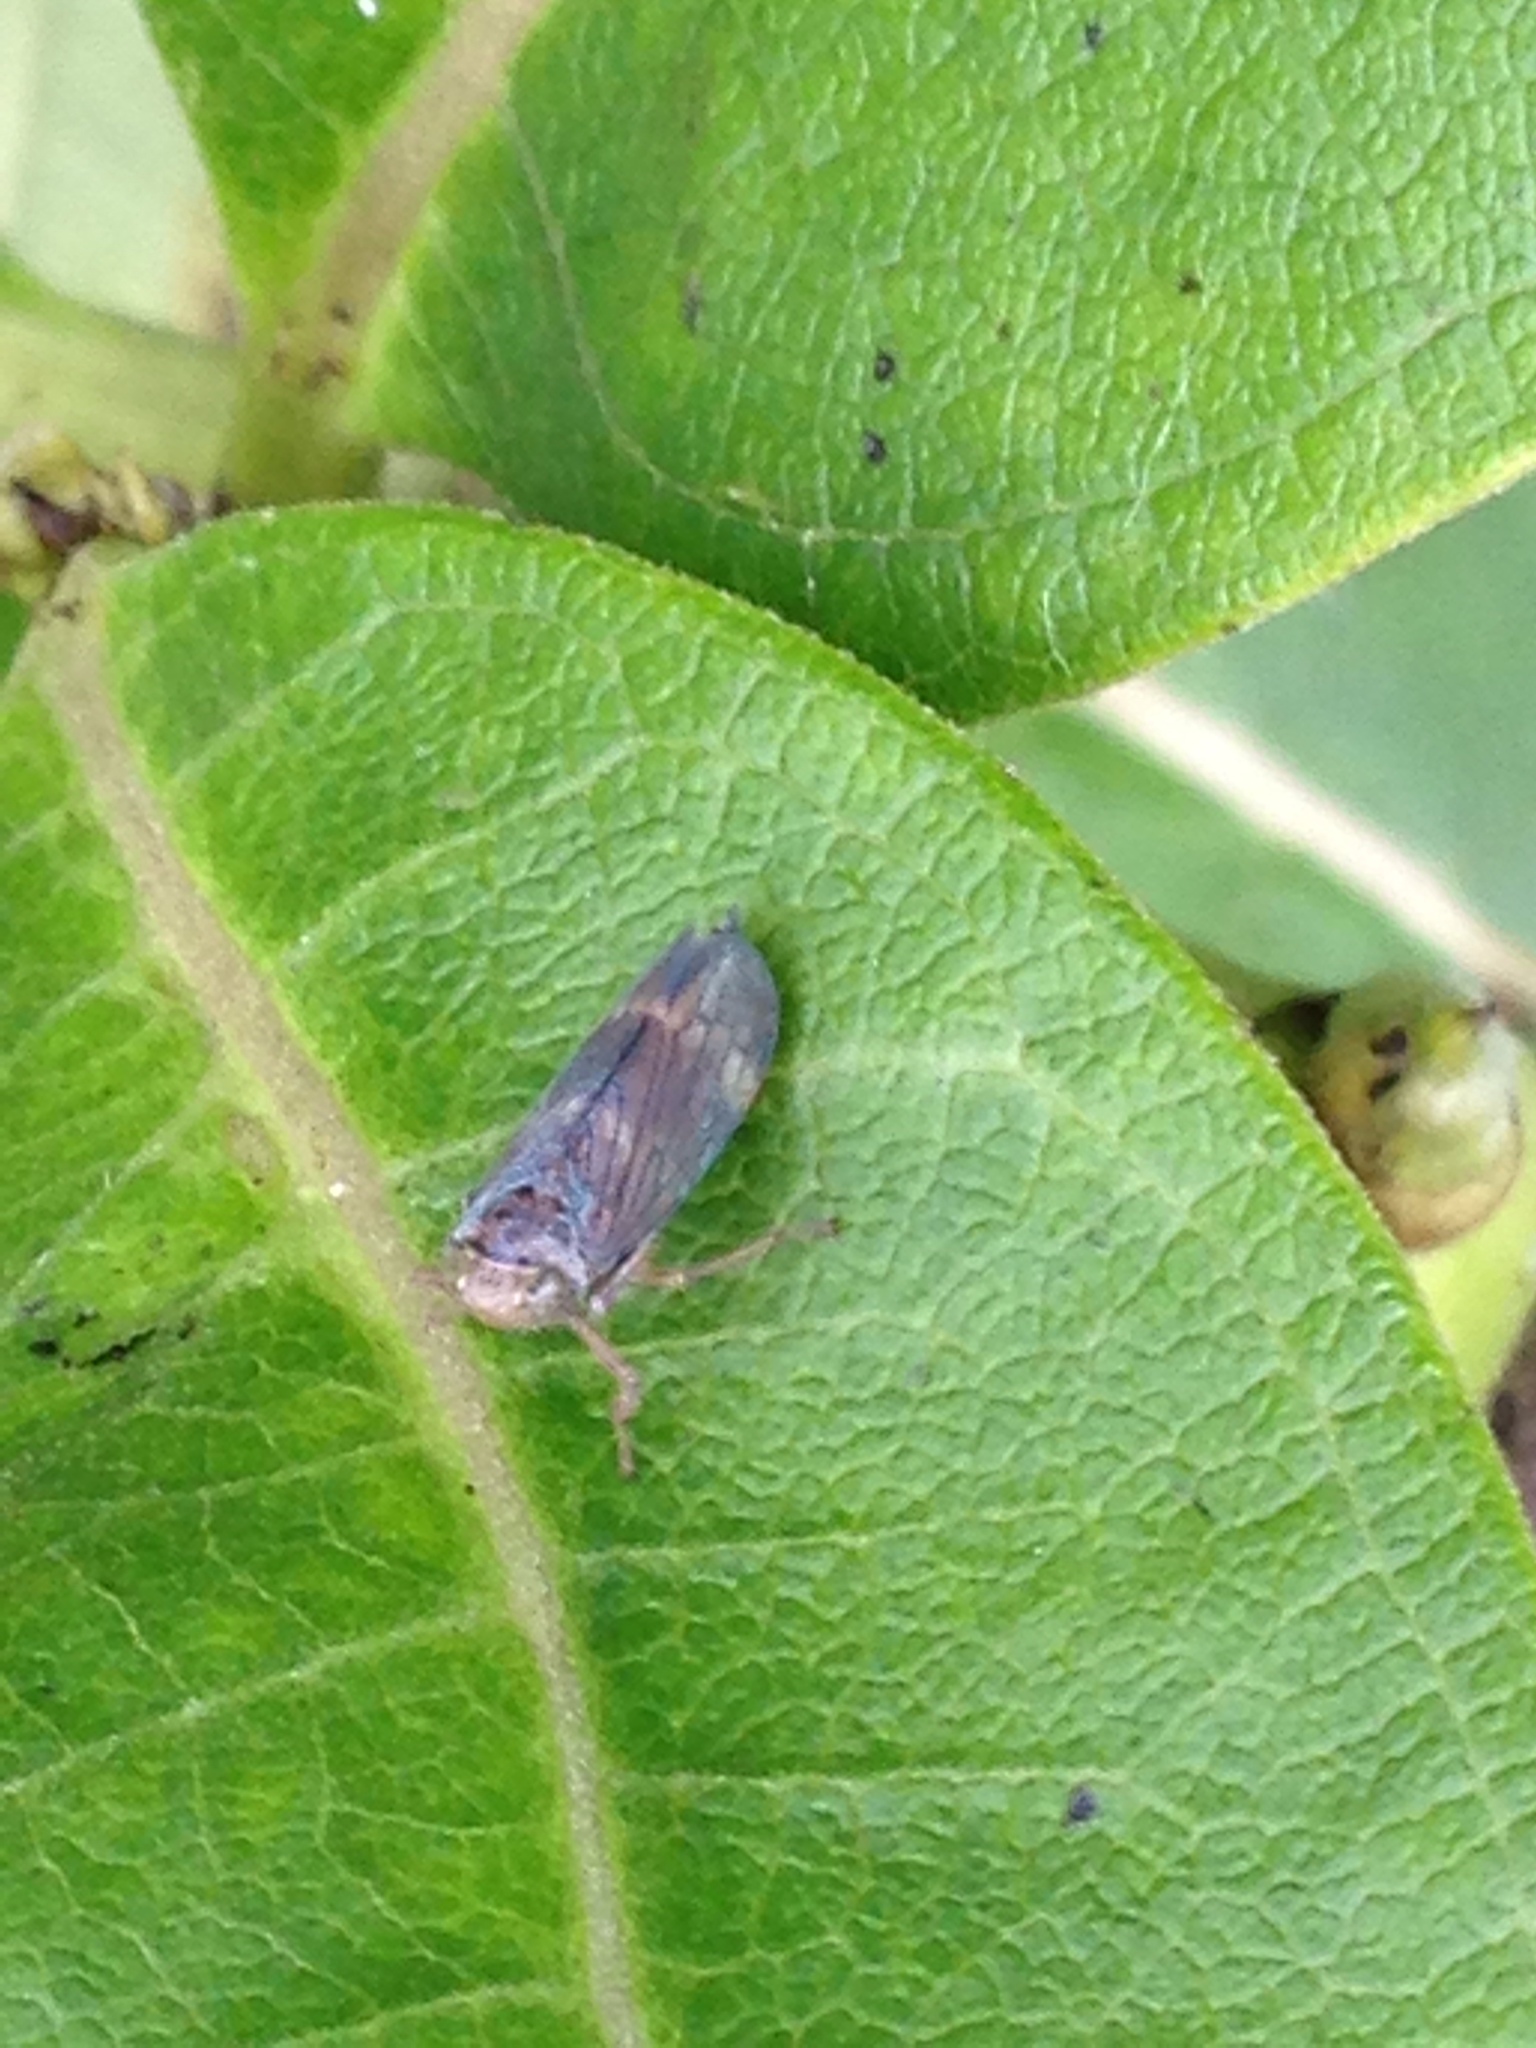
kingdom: Animalia
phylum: Arthropoda
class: Insecta
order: Hemiptera
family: Cicadellidae
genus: Jikradia
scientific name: Jikradia olitoria
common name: Coppery leafhopper
